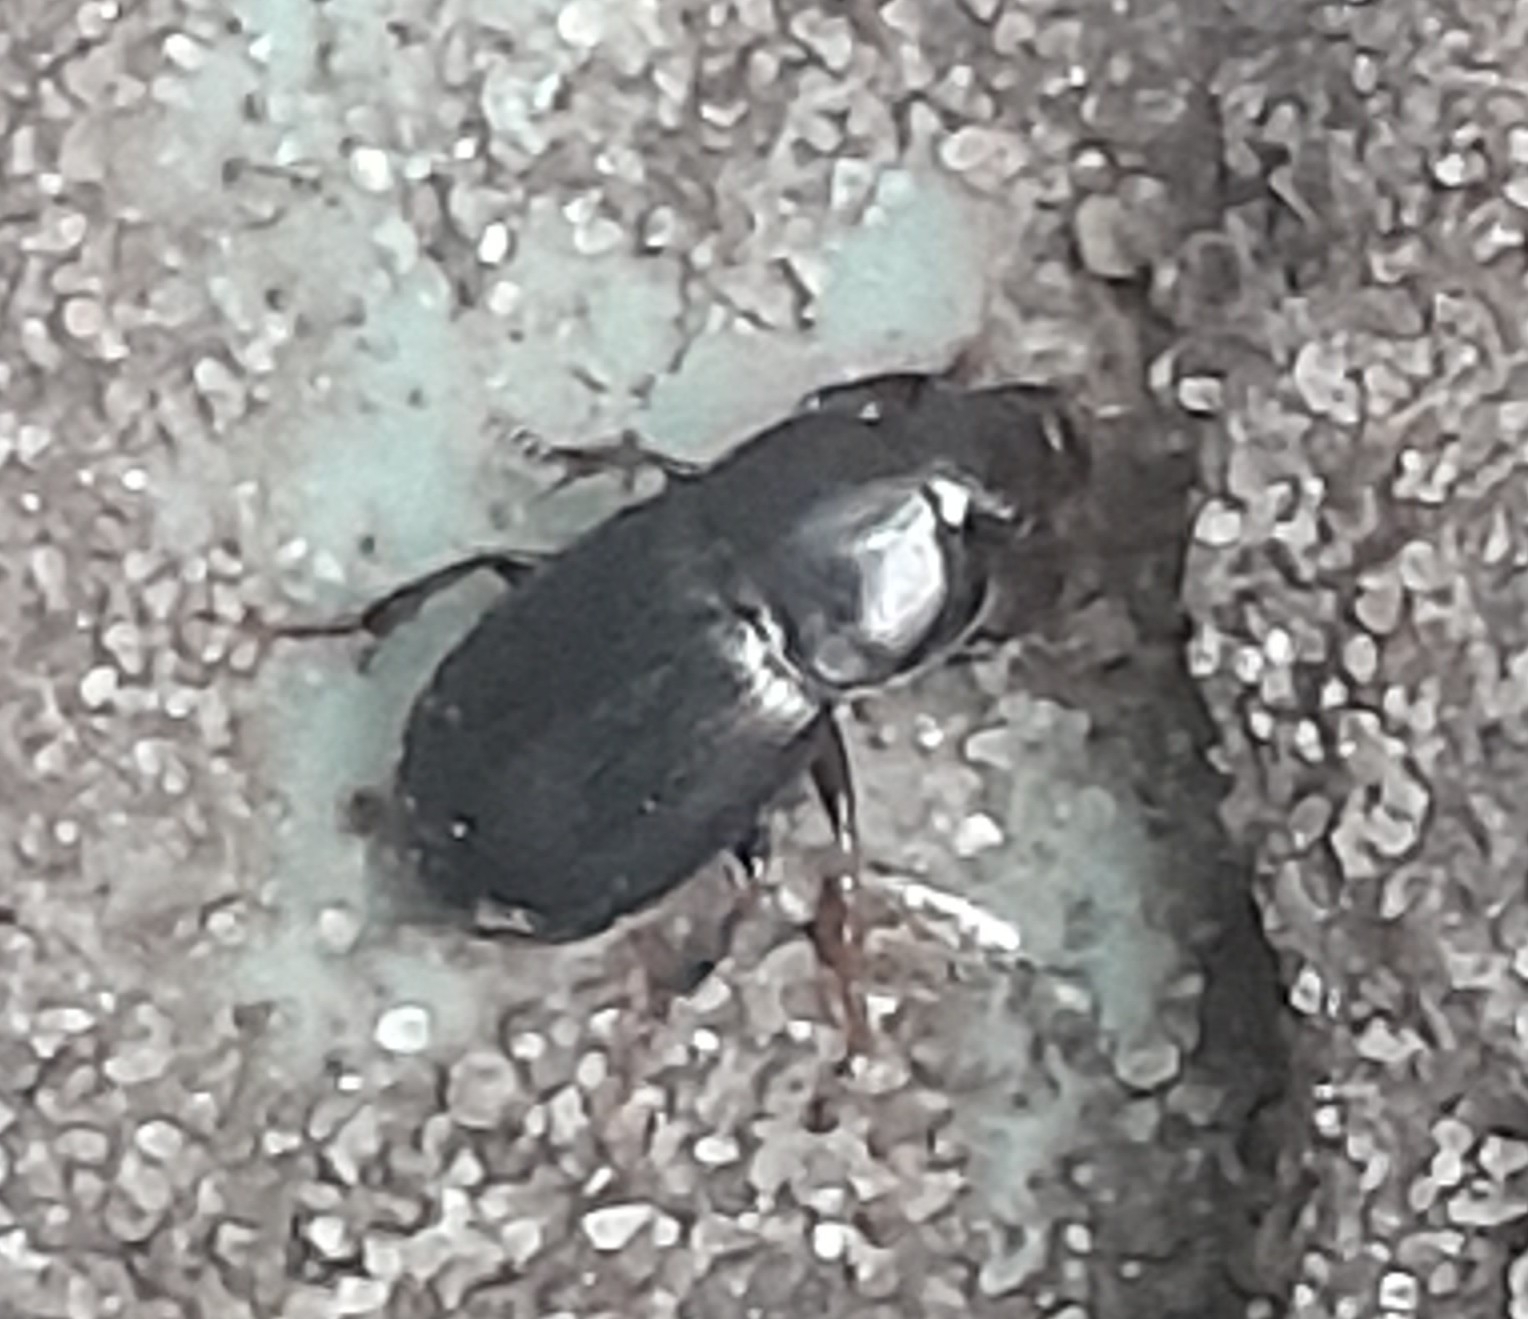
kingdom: Animalia
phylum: Arthropoda
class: Insecta
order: Coleoptera
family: Carabidae
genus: Zabrus
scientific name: Zabrus spinipes
